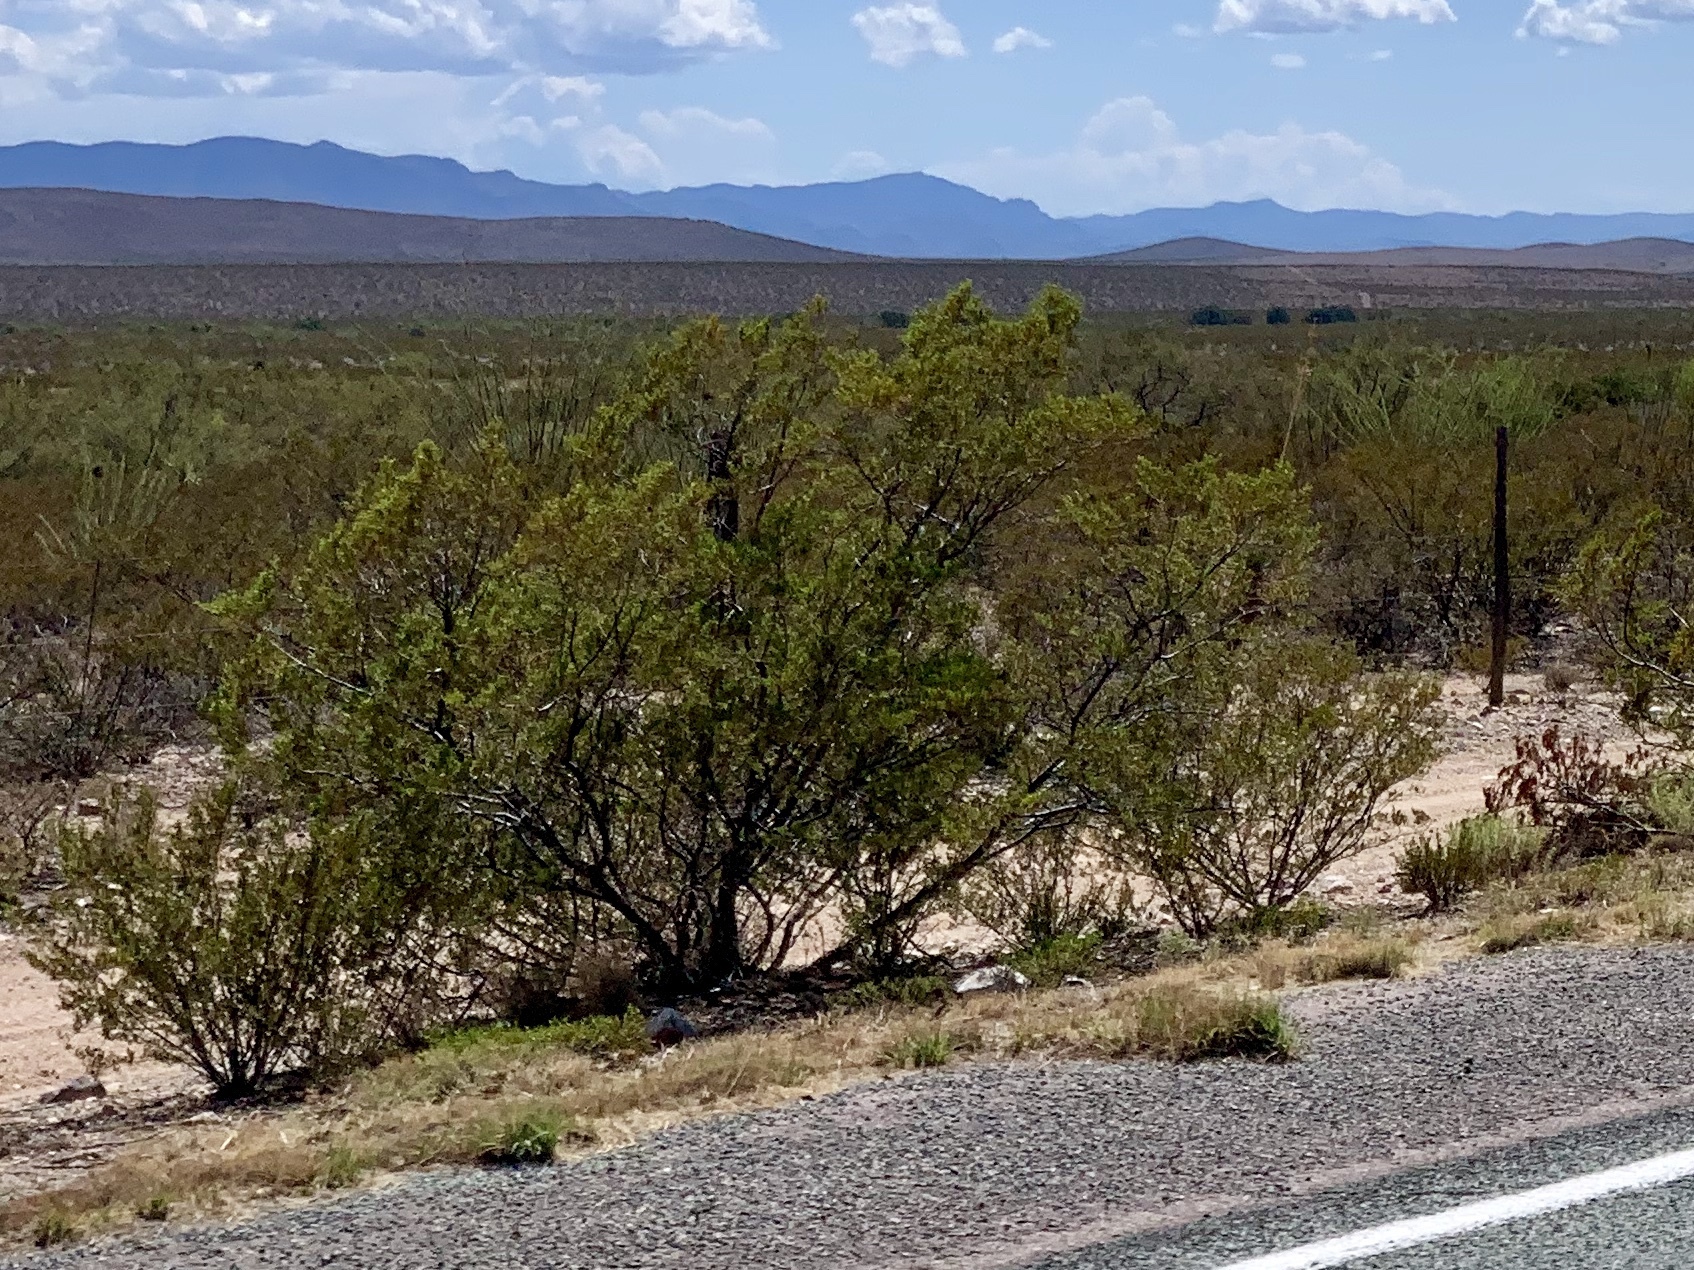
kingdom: Plantae
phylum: Tracheophyta
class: Magnoliopsida
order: Zygophyllales
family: Zygophyllaceae
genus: Larrea
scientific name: Larrea tridentata
